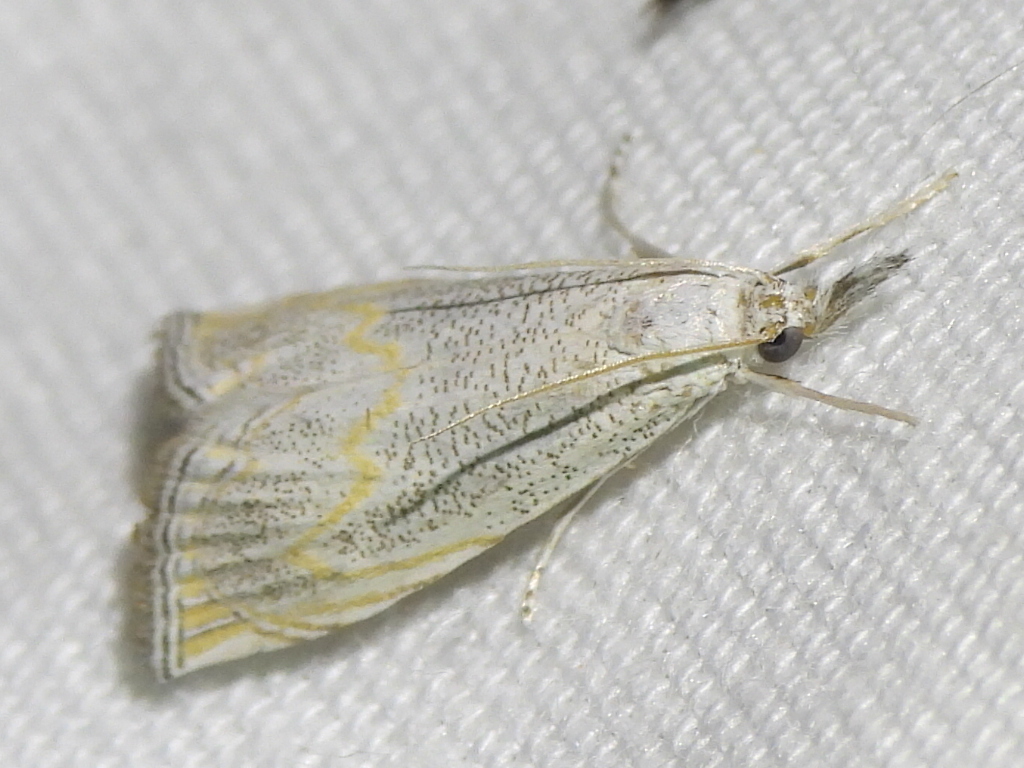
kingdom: Animalia
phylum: Arthropoda
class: Insecta
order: Lepidoptera
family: Crambidae
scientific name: Crambidae
